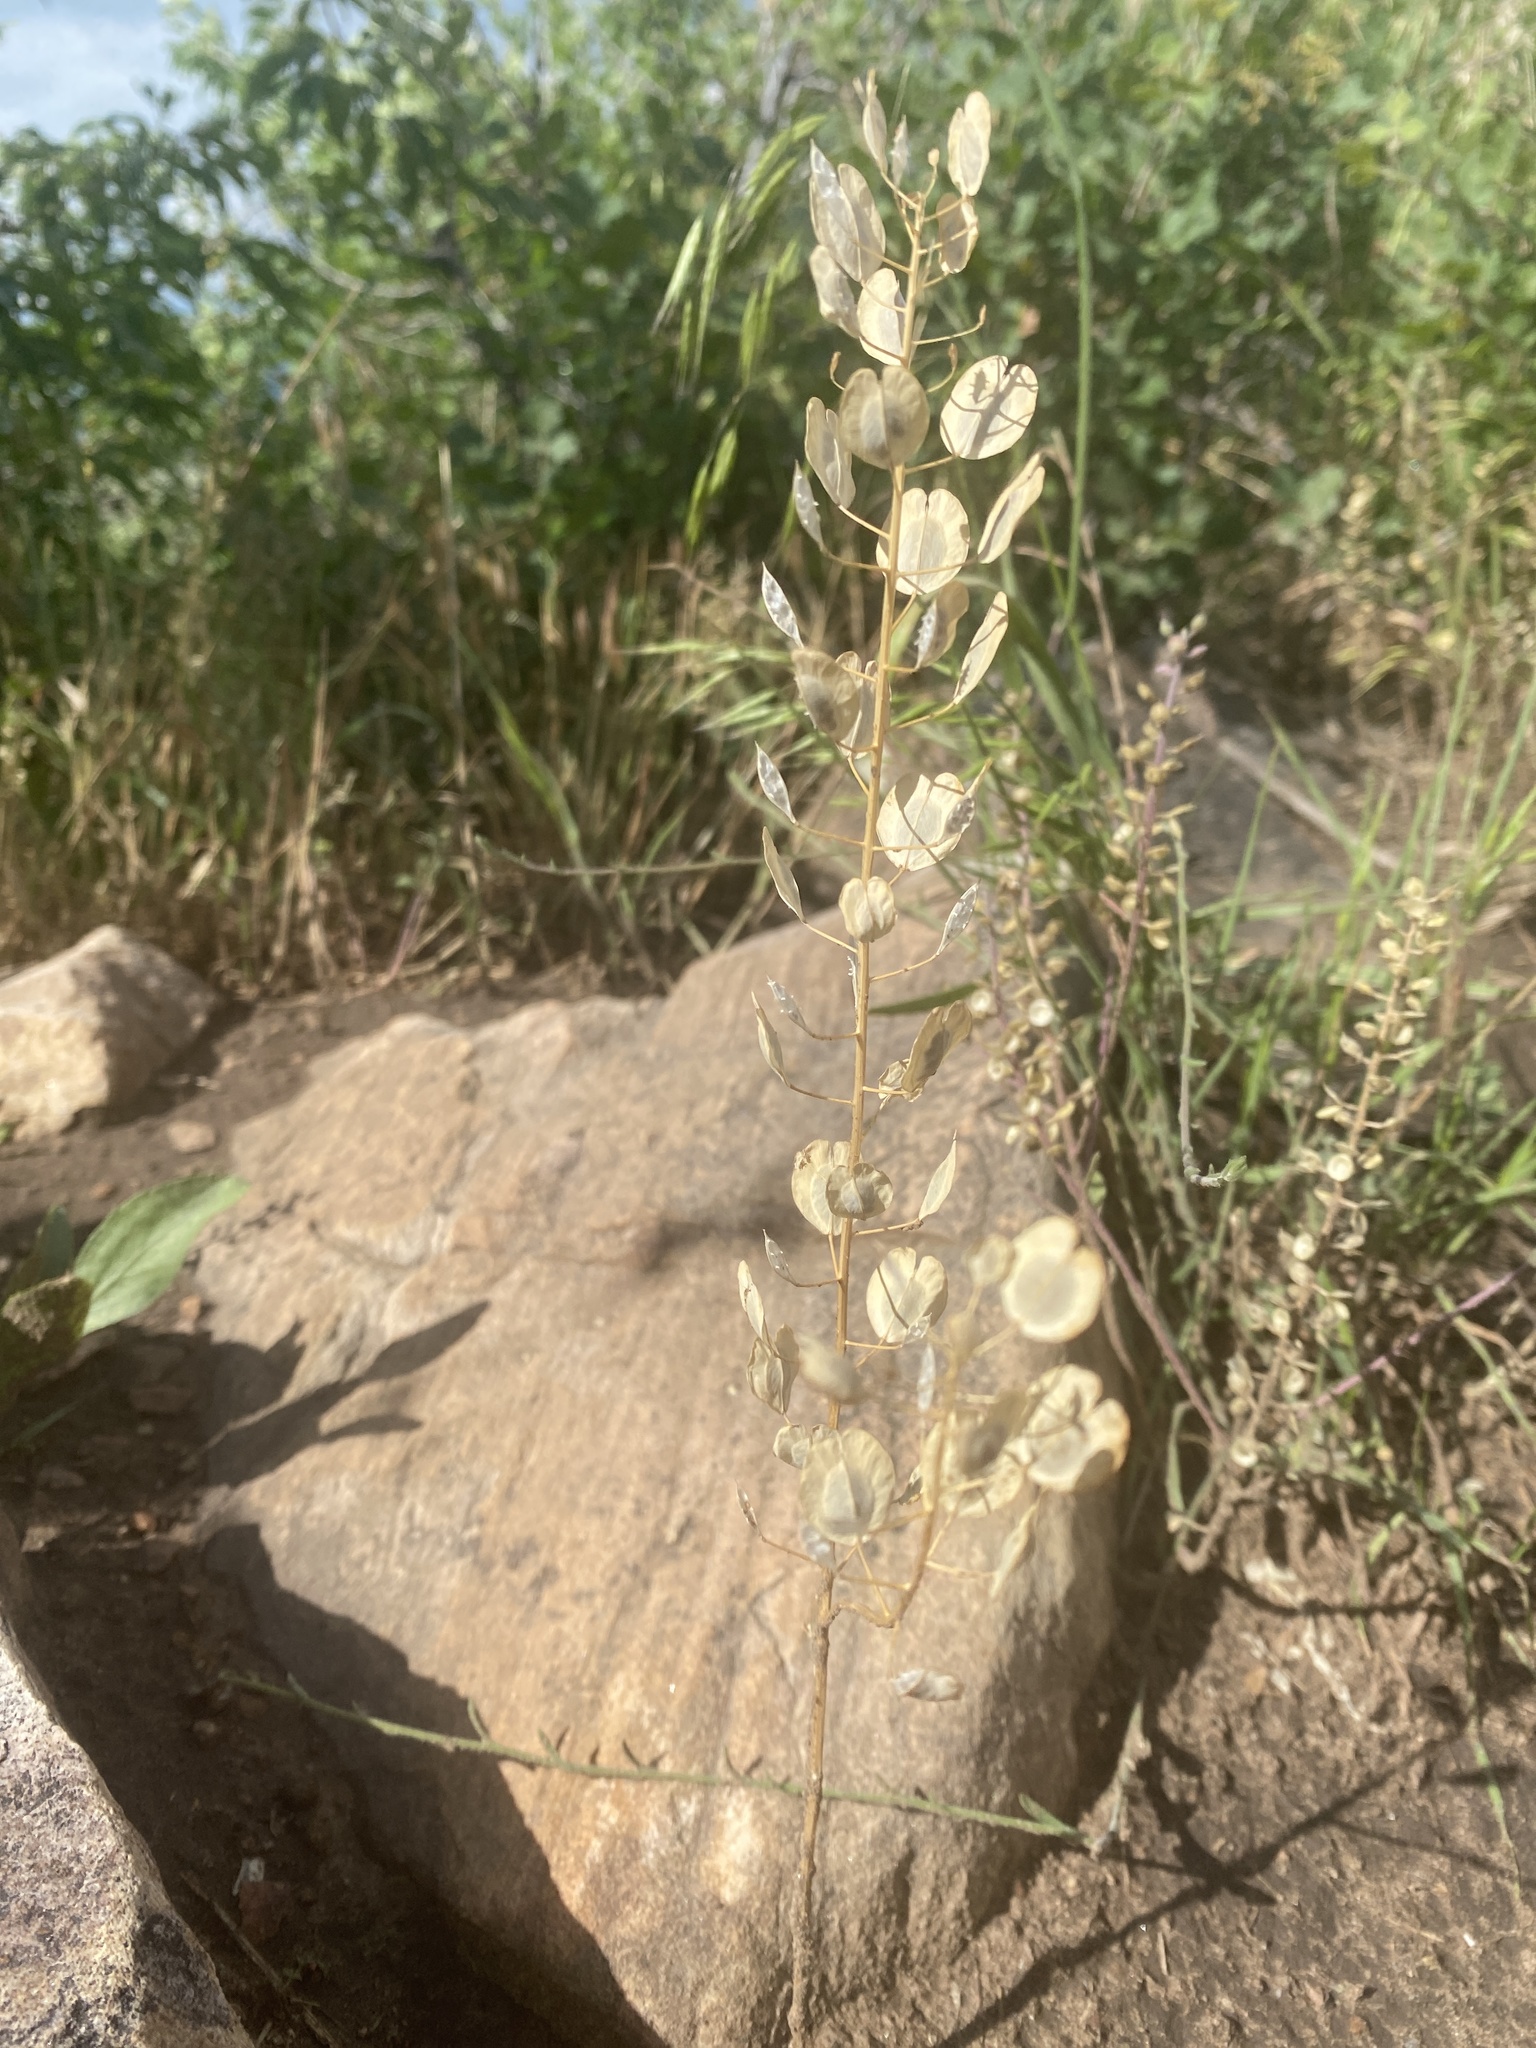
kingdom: Plantae
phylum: Tracheophyta
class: Magnoliopsida
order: Brassicales
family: Brassicaceae
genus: Thlaspi
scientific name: Thlaspi arvense
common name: Field pennycress
